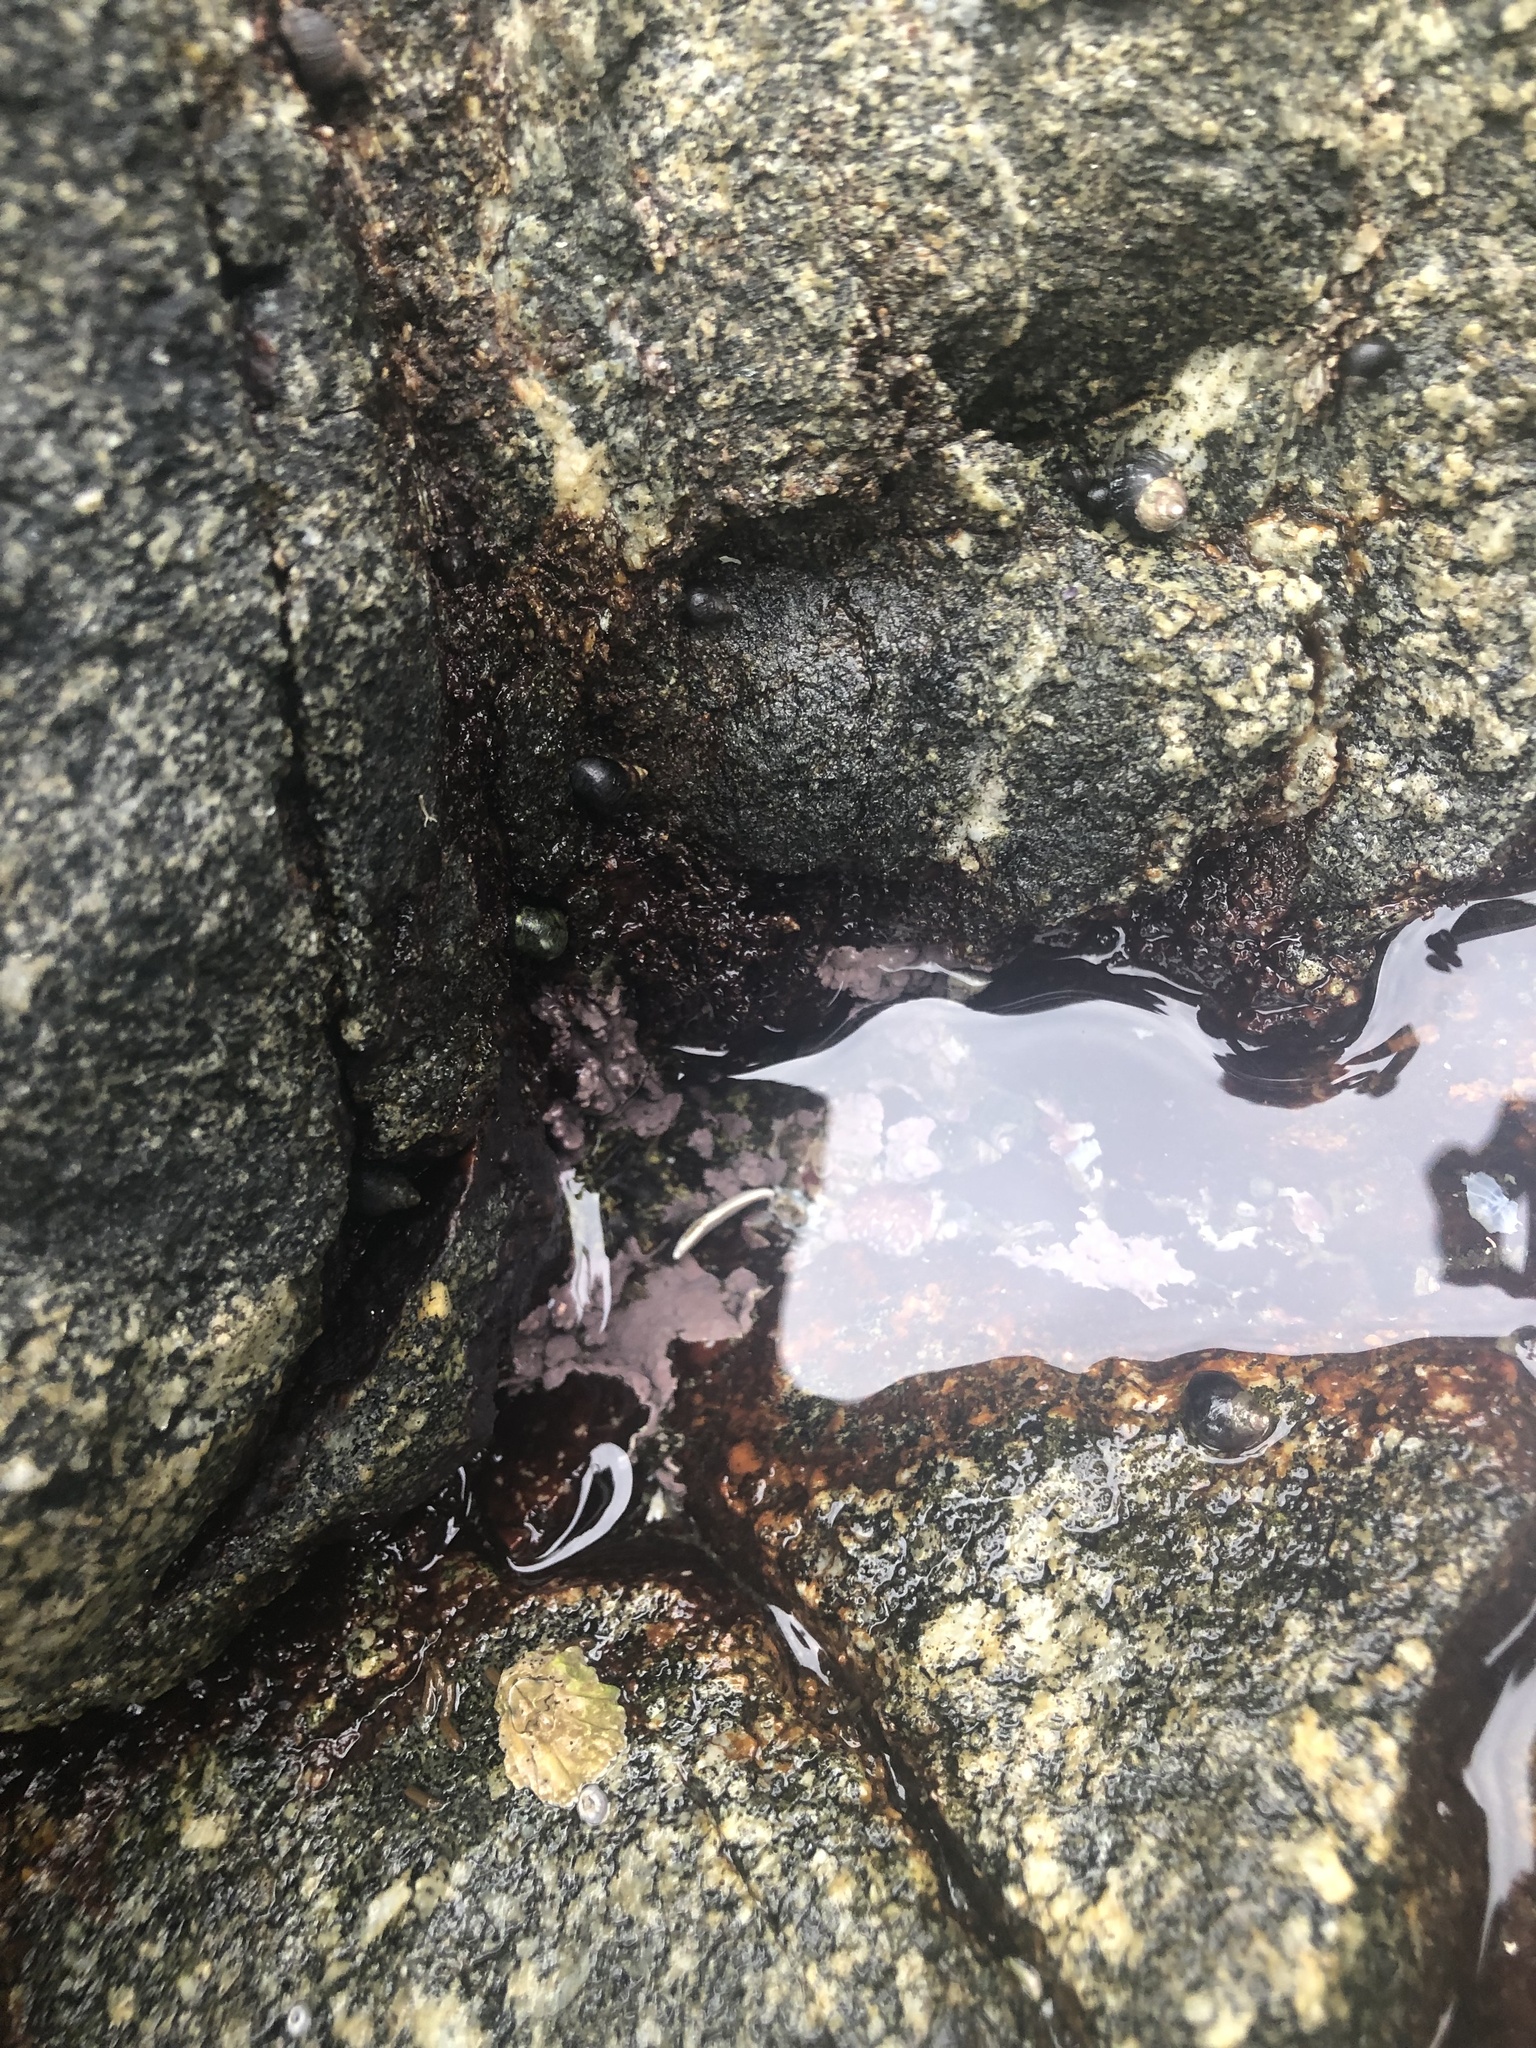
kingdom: Plantae
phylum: Rhodophyta
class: Florideophyceae
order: Corallinales
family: Corallinaceae
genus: Chamberlainium
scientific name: Chamberlainium tumidum
